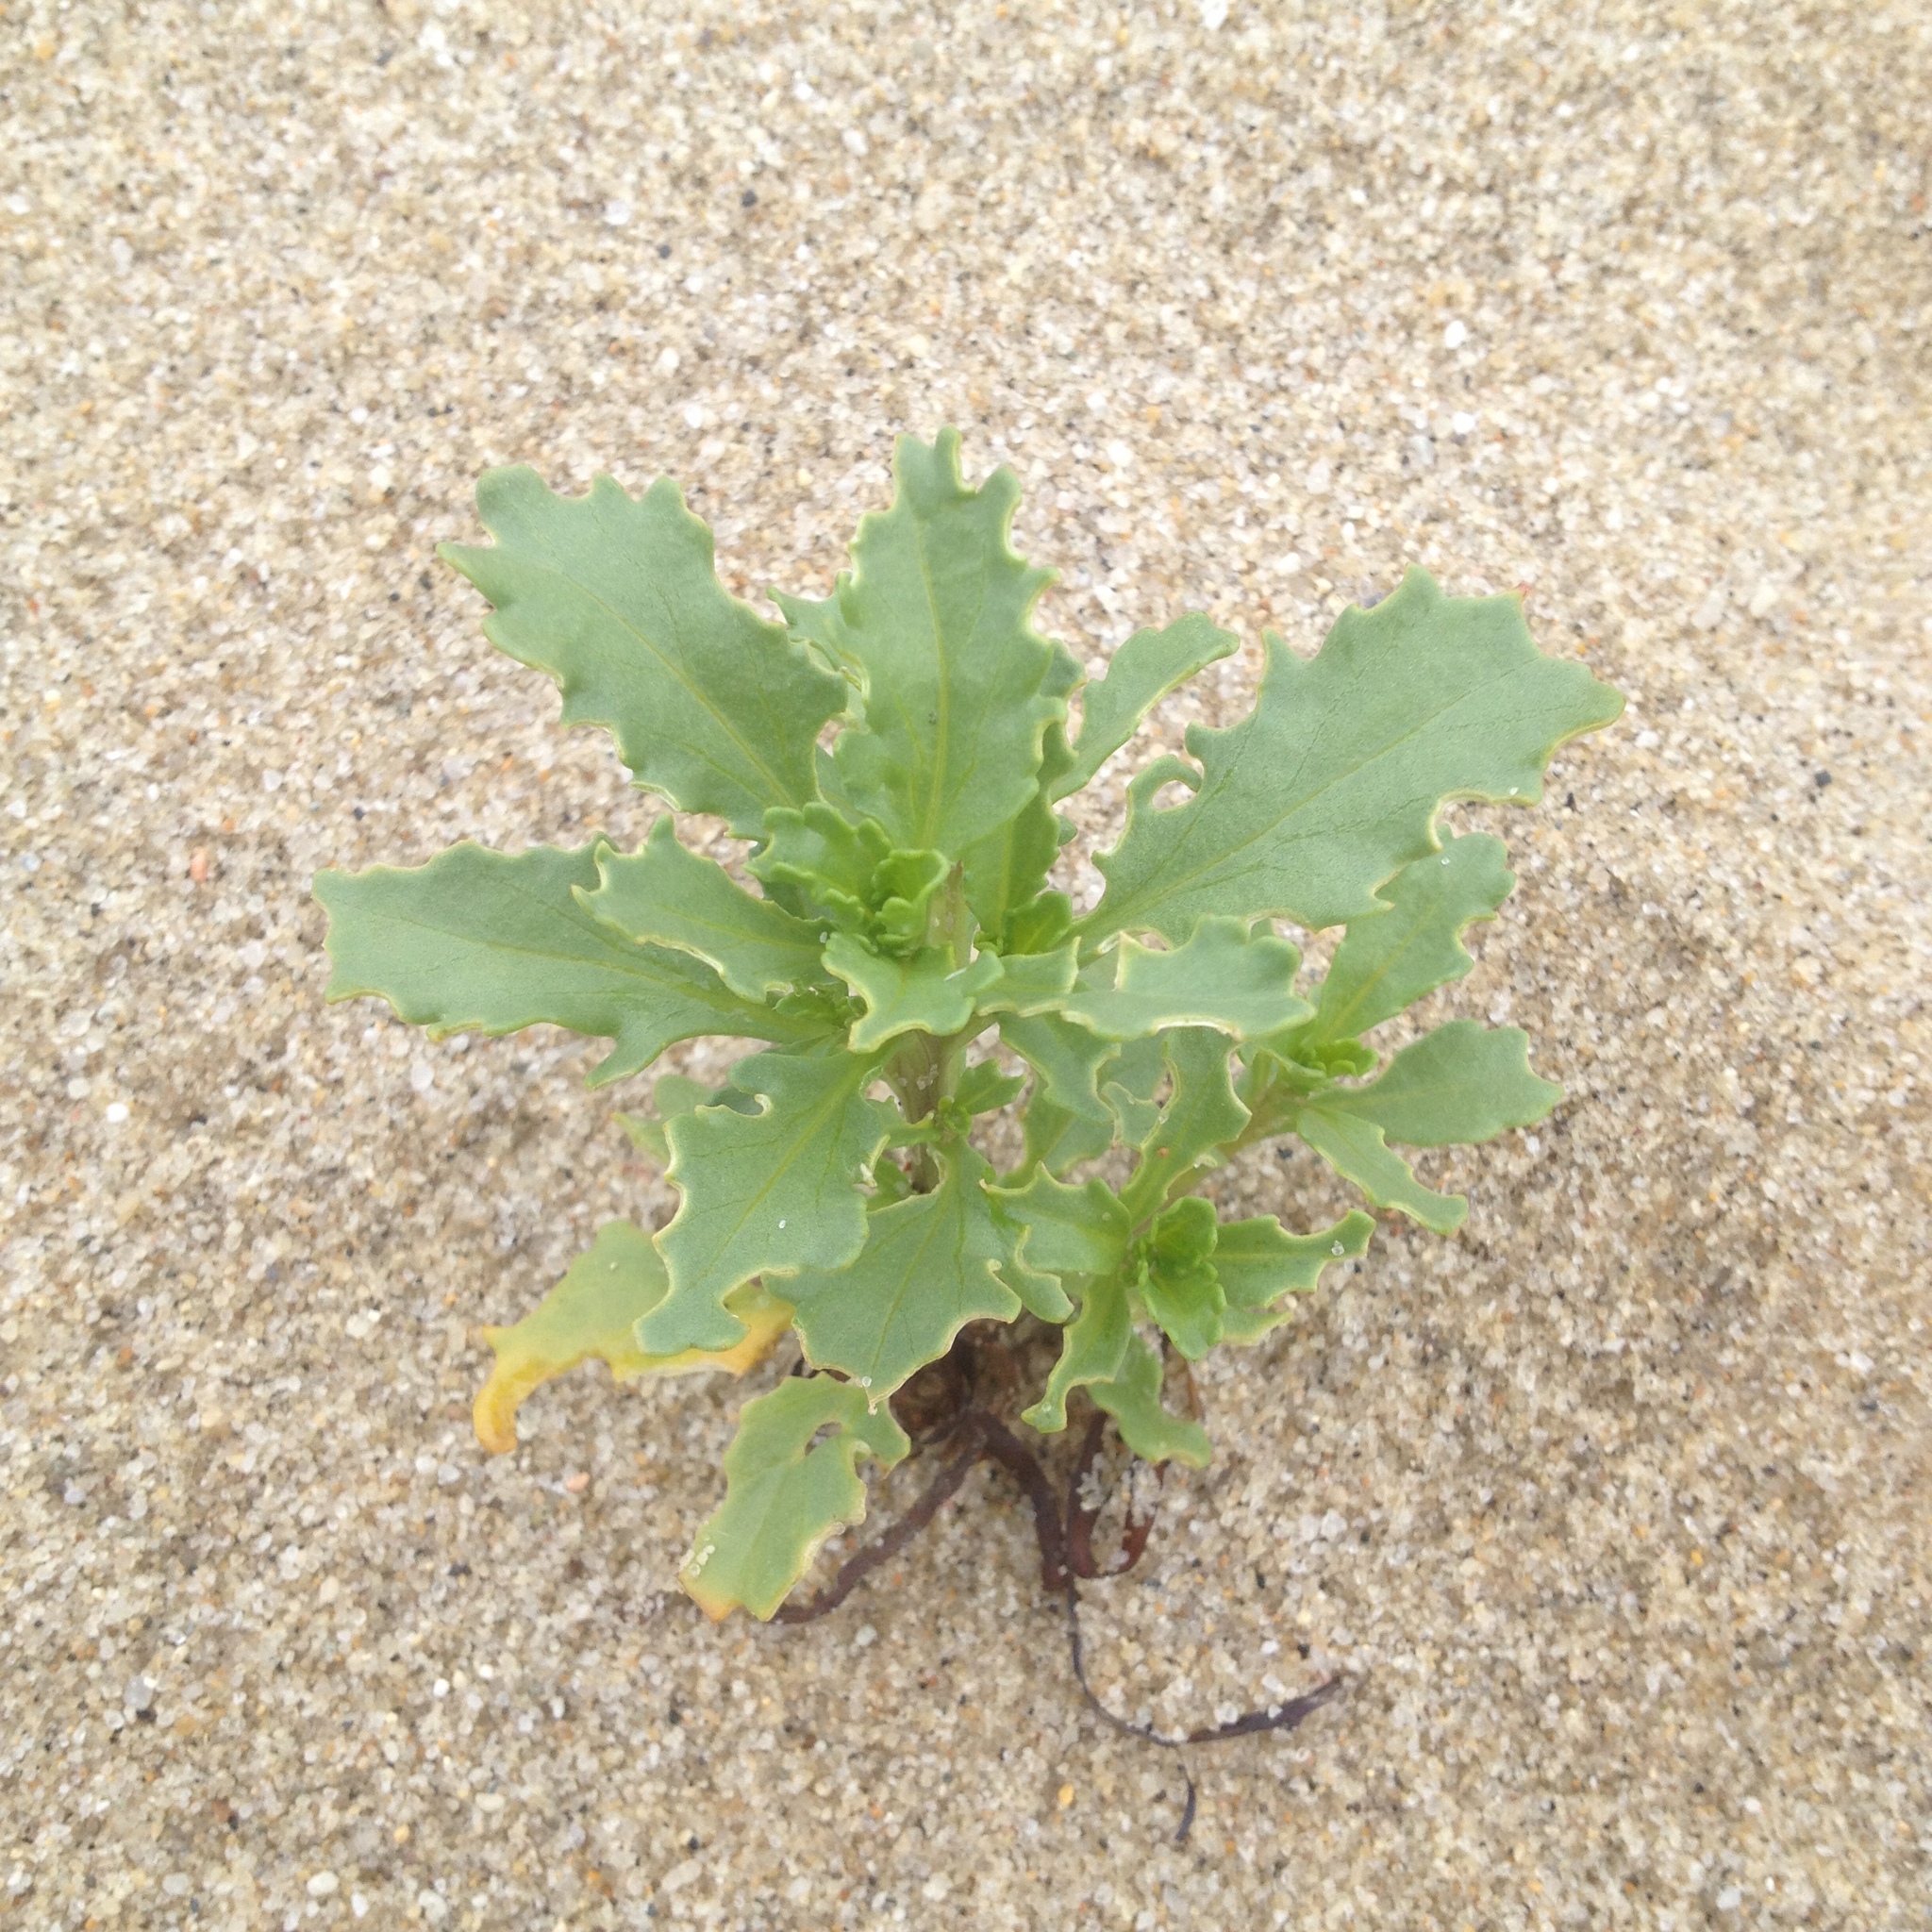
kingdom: Plantae
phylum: Tracheophyta
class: Magnoliopsida
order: Brassicales
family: Brassicaceae
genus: Cakile
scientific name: Cakile edentula
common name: American sea rocket
